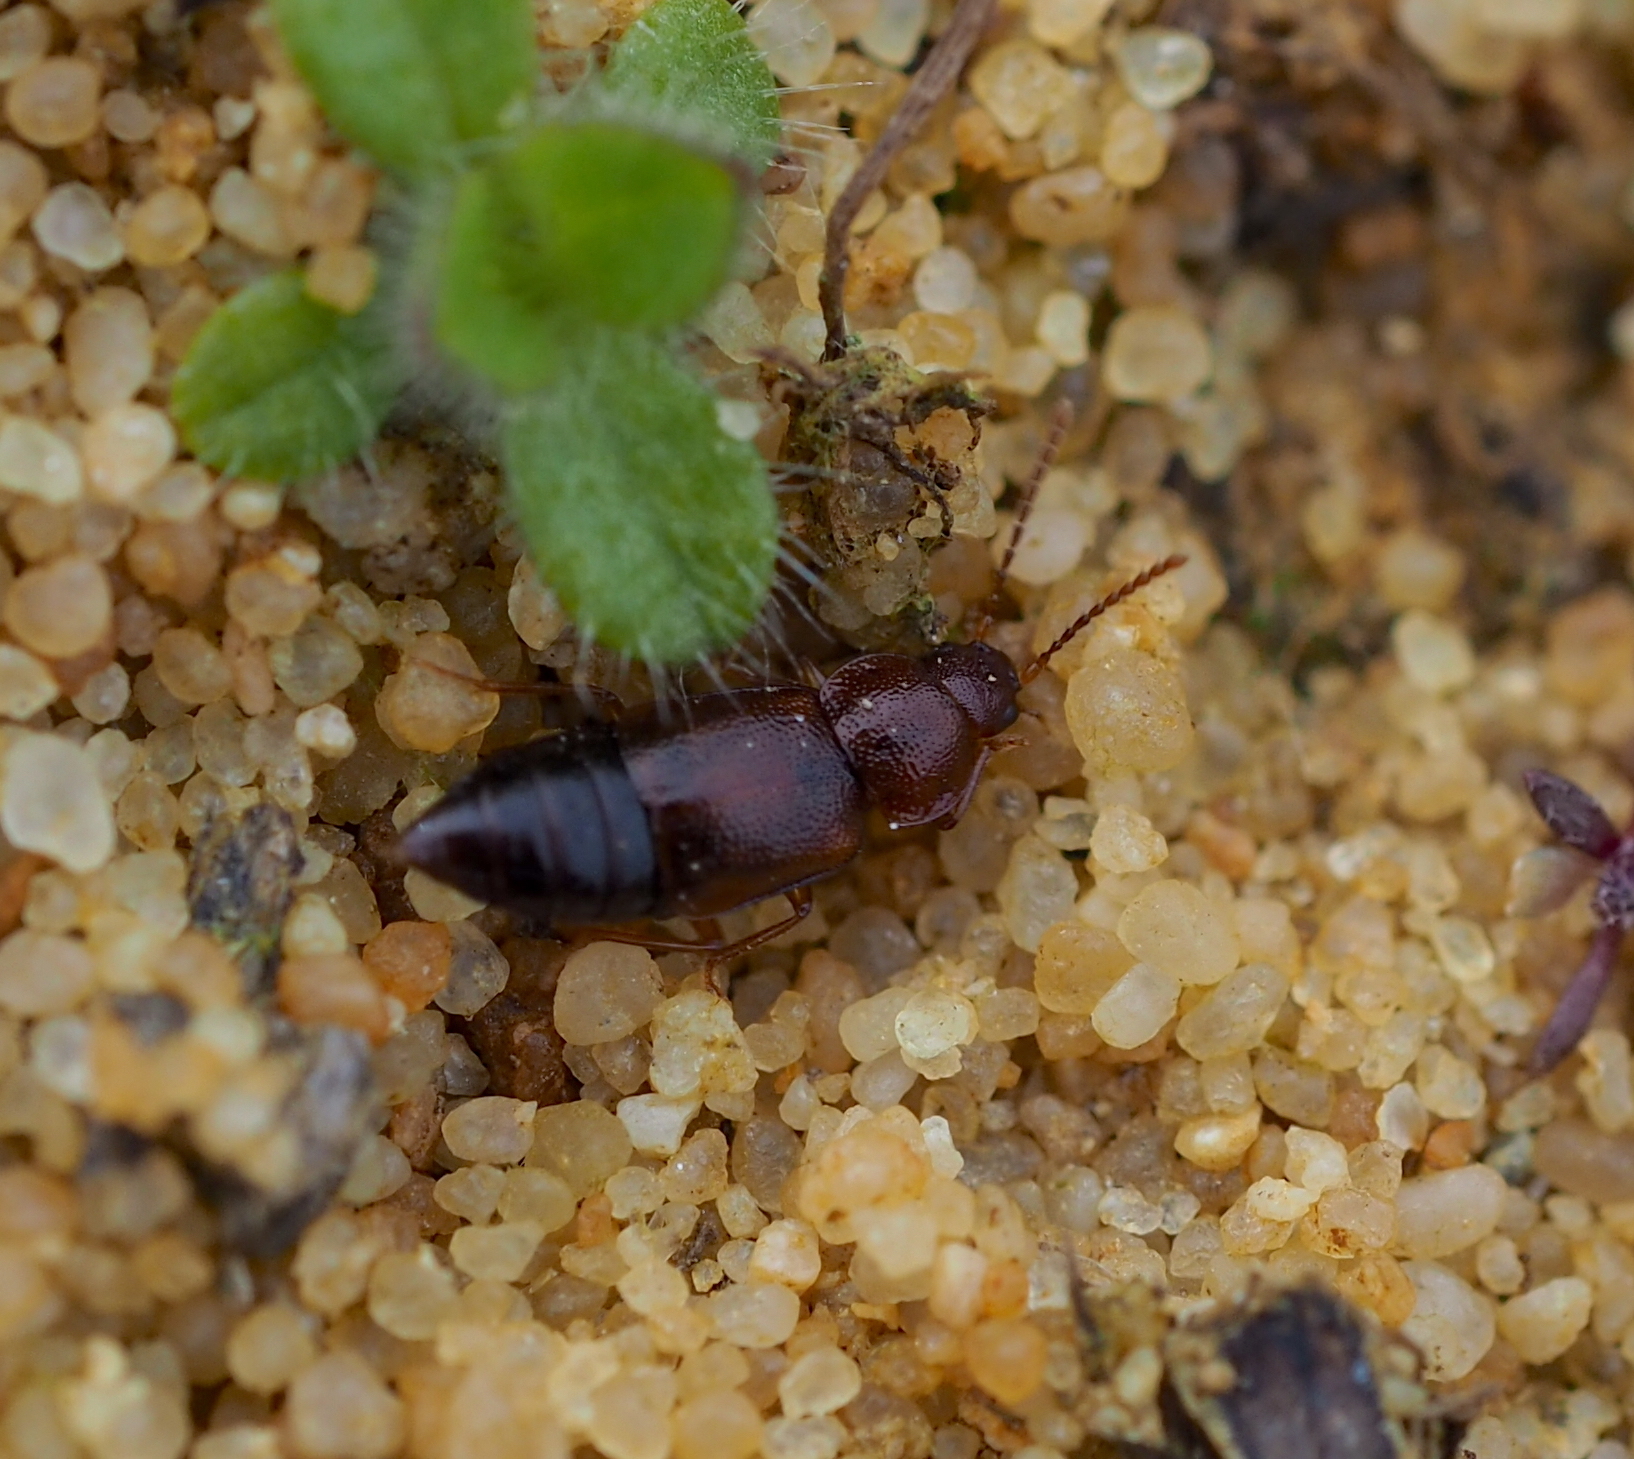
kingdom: Animalia
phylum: Arthropoda
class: Insecta
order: Coleoptera
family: Staphylinidae
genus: Olophrum
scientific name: Olophrum assimile
